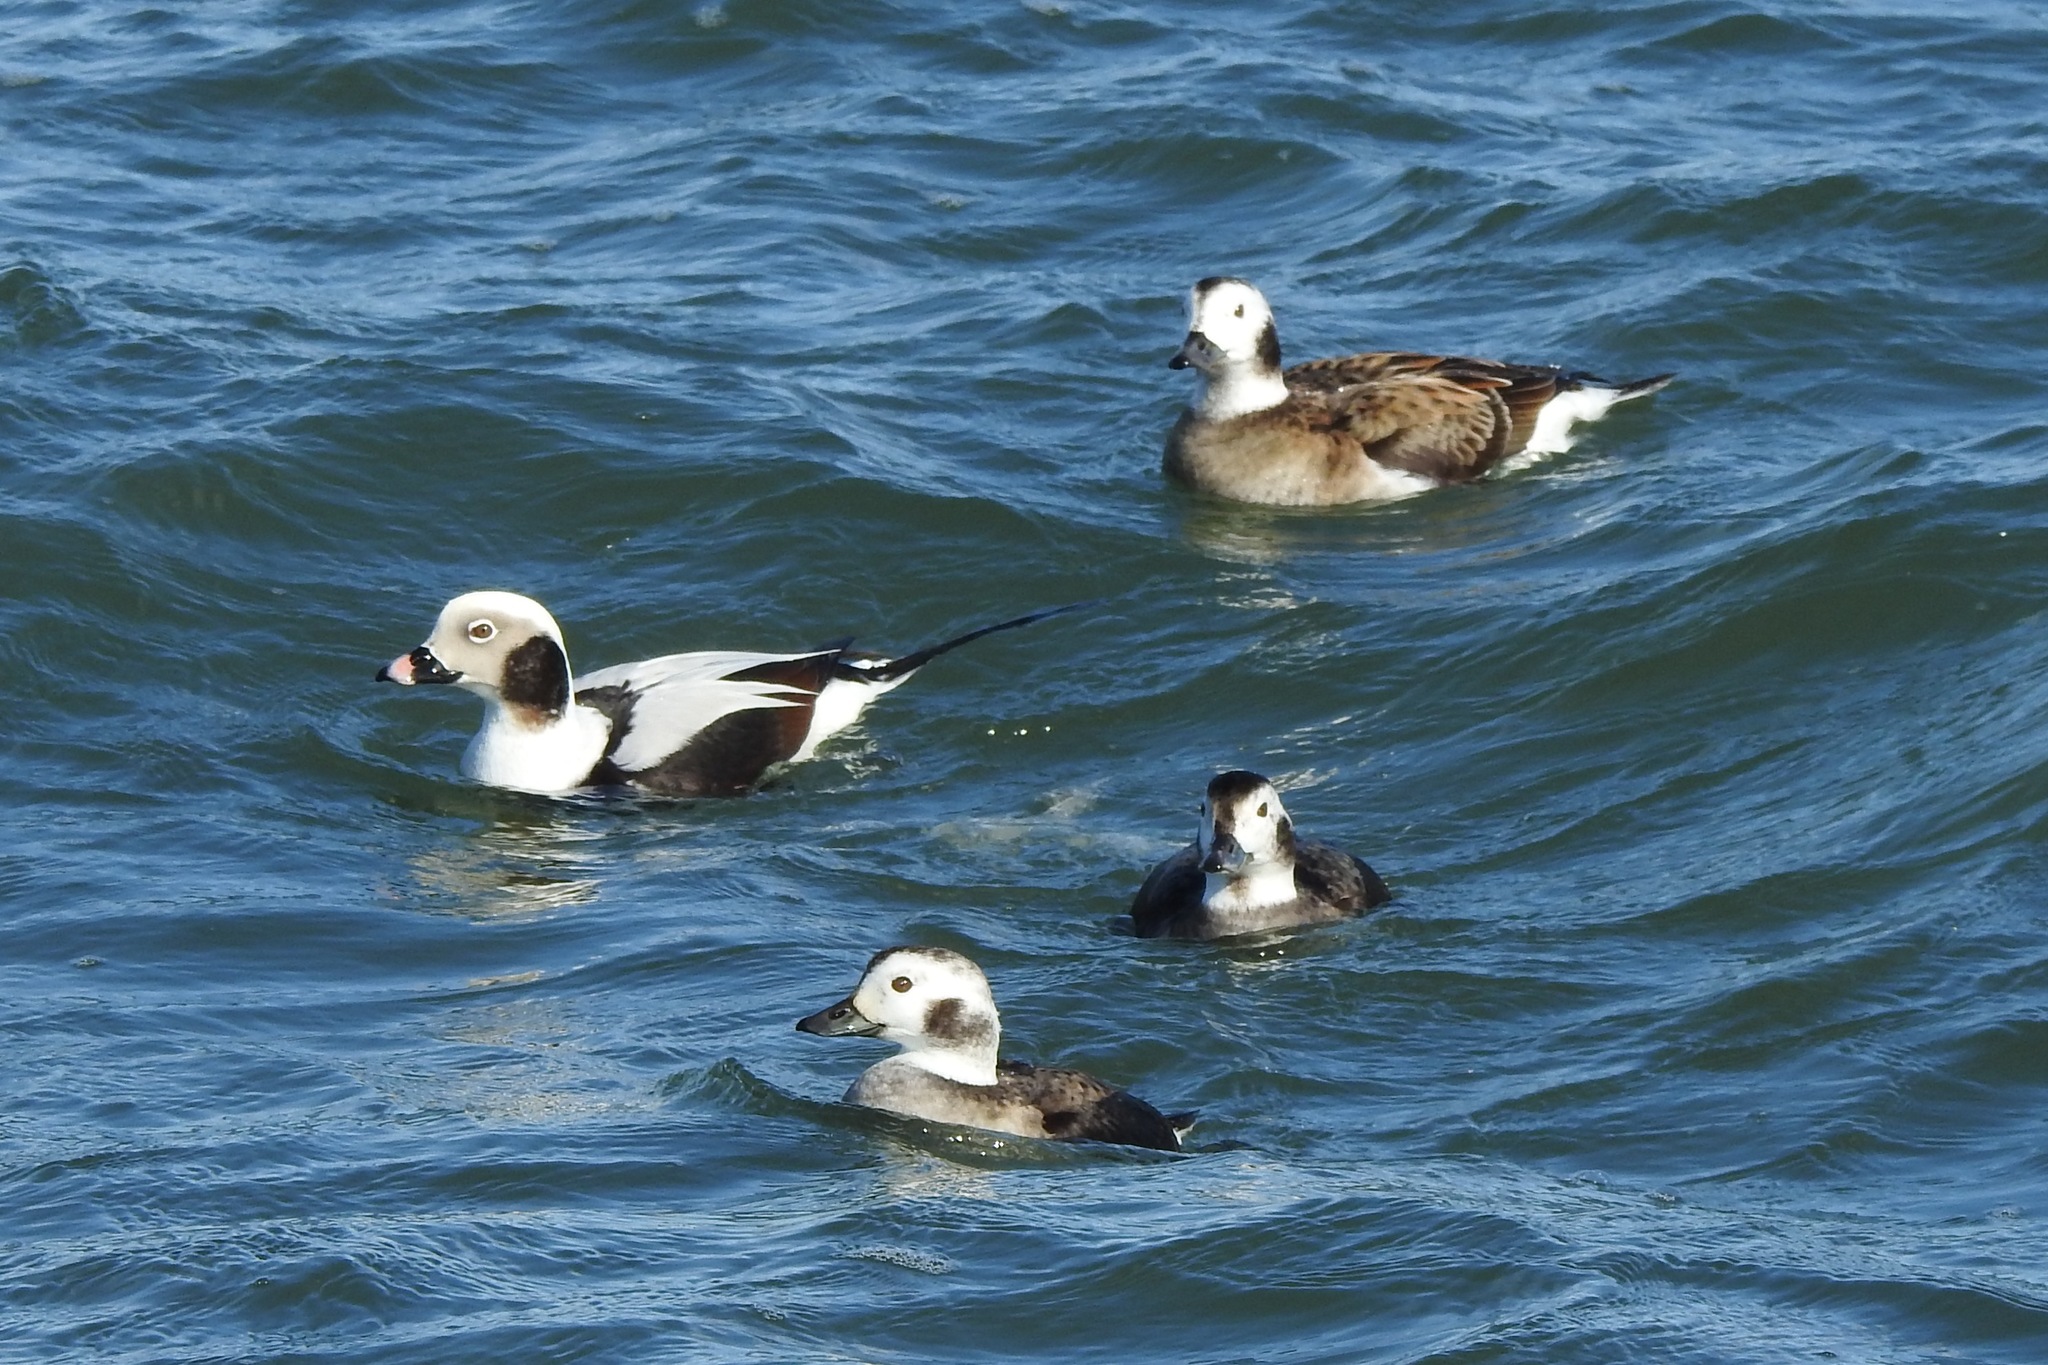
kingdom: Animalia
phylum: Chordata
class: Aves
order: Anseriformes
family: Anatidae
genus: Clangula
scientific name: Clangula hyemalis
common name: Long-tailed duck
